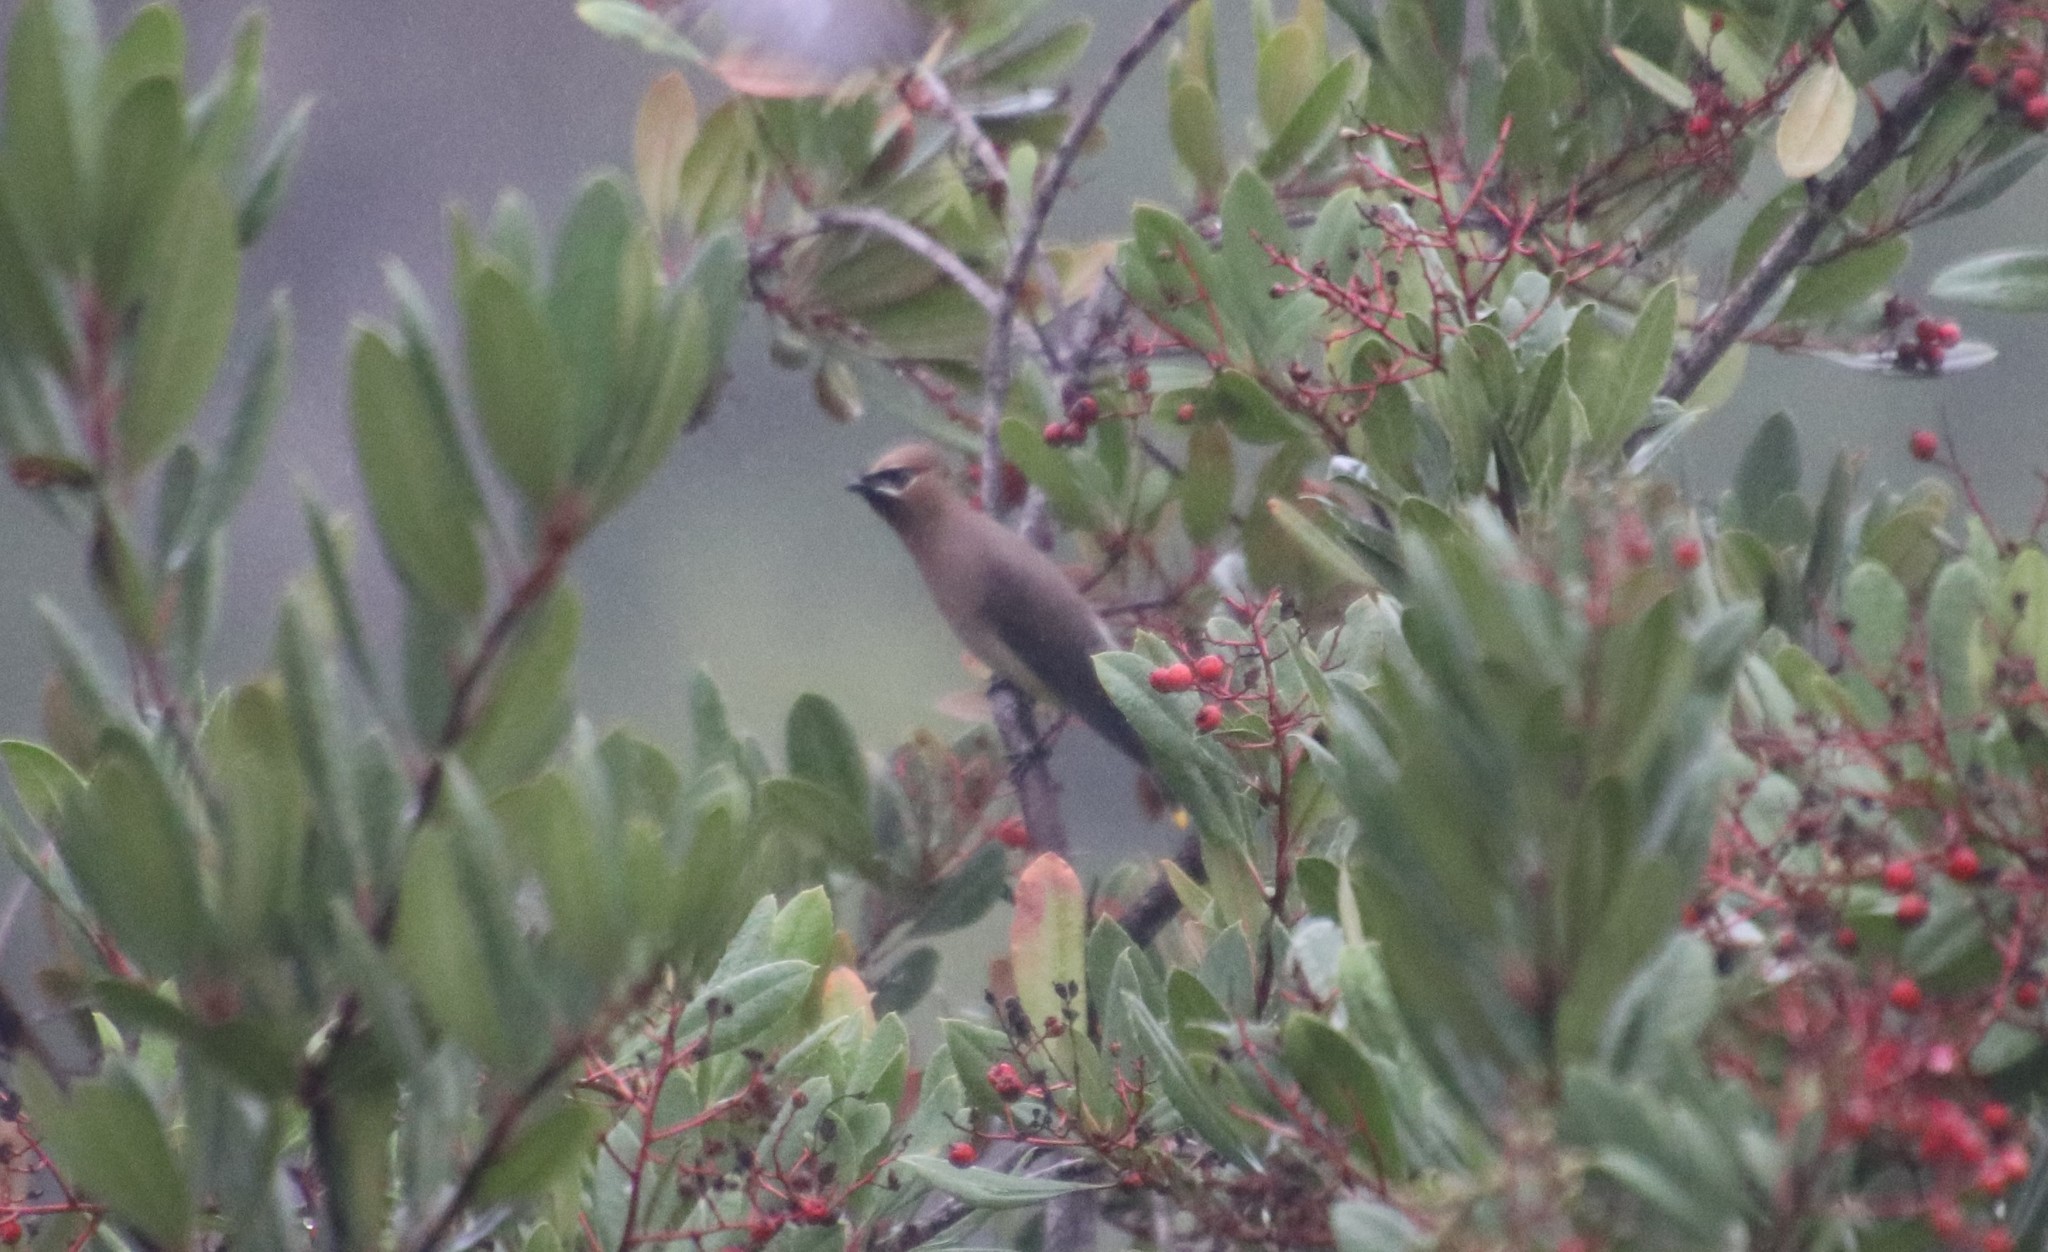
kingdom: Animalia
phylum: Chordata
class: Aves
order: Passeriformes
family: Bombycillidae
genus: Bombycilla
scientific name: Bombycilla cedrorum
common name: Cedar waxwing
